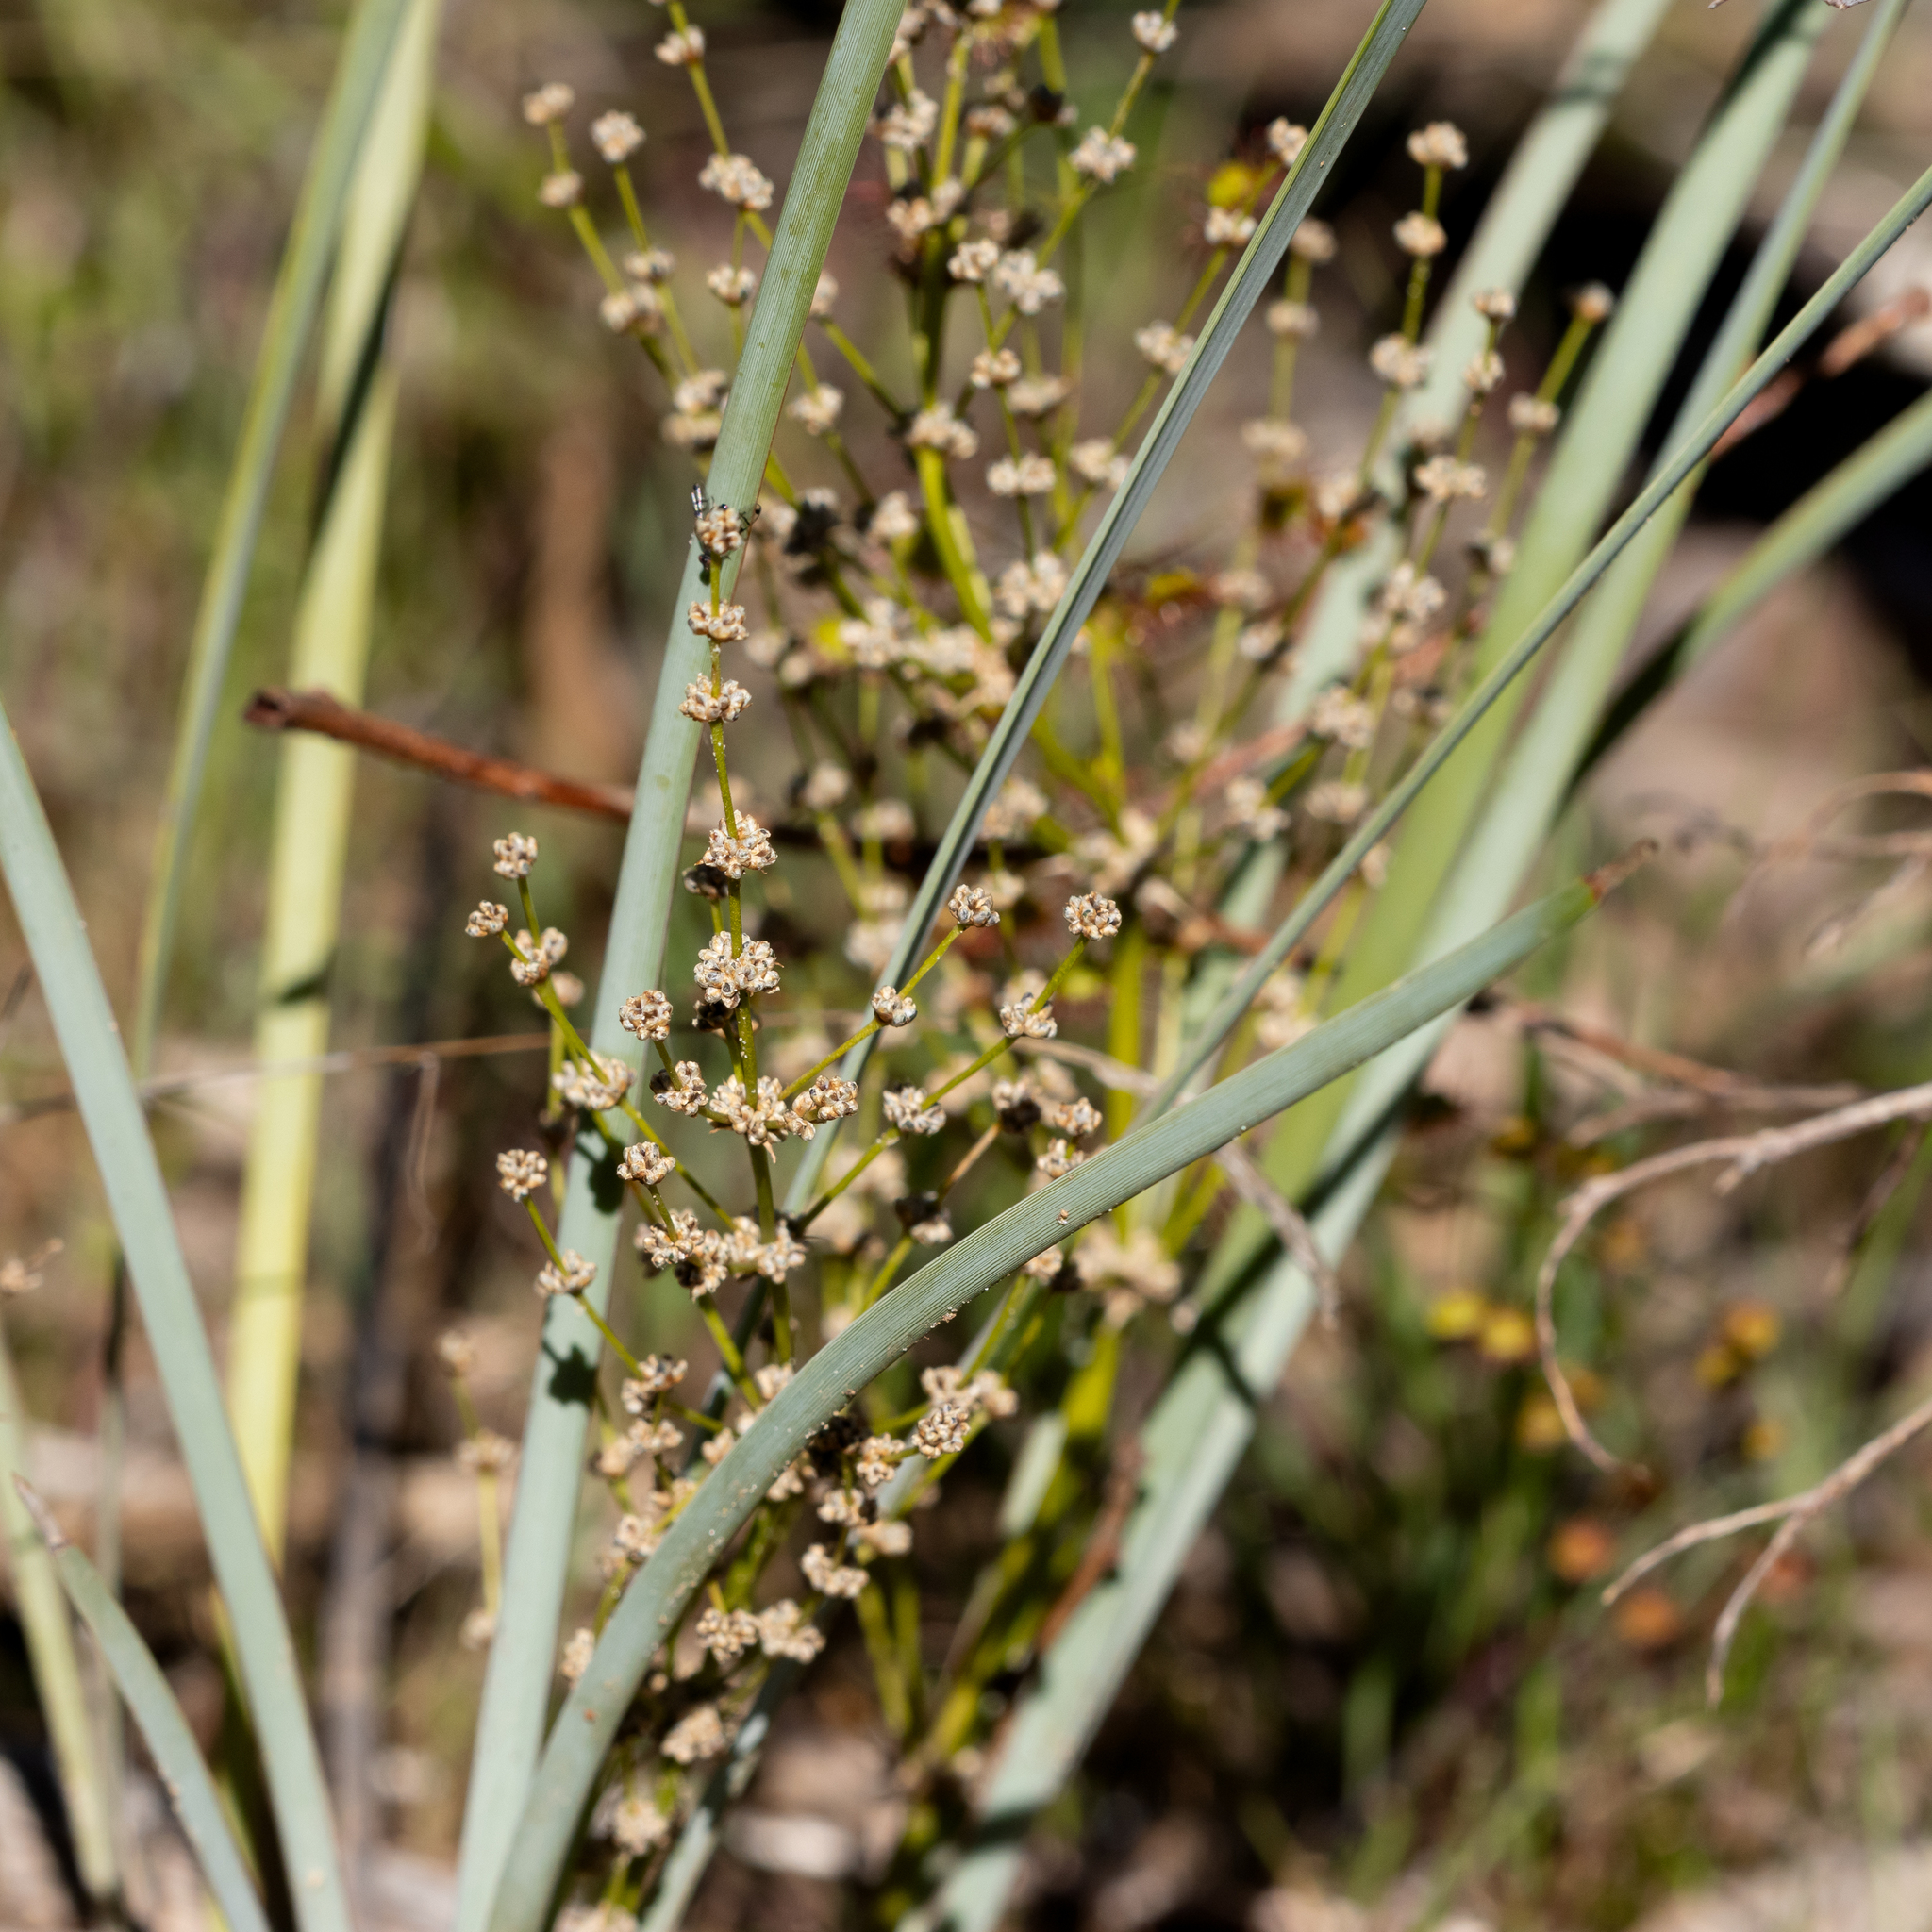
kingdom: Plantae
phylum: Tracheophyta
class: Liliopsida
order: Asparagales
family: Asparagaceae
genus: Lomandra
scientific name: Lomandra multiflora
